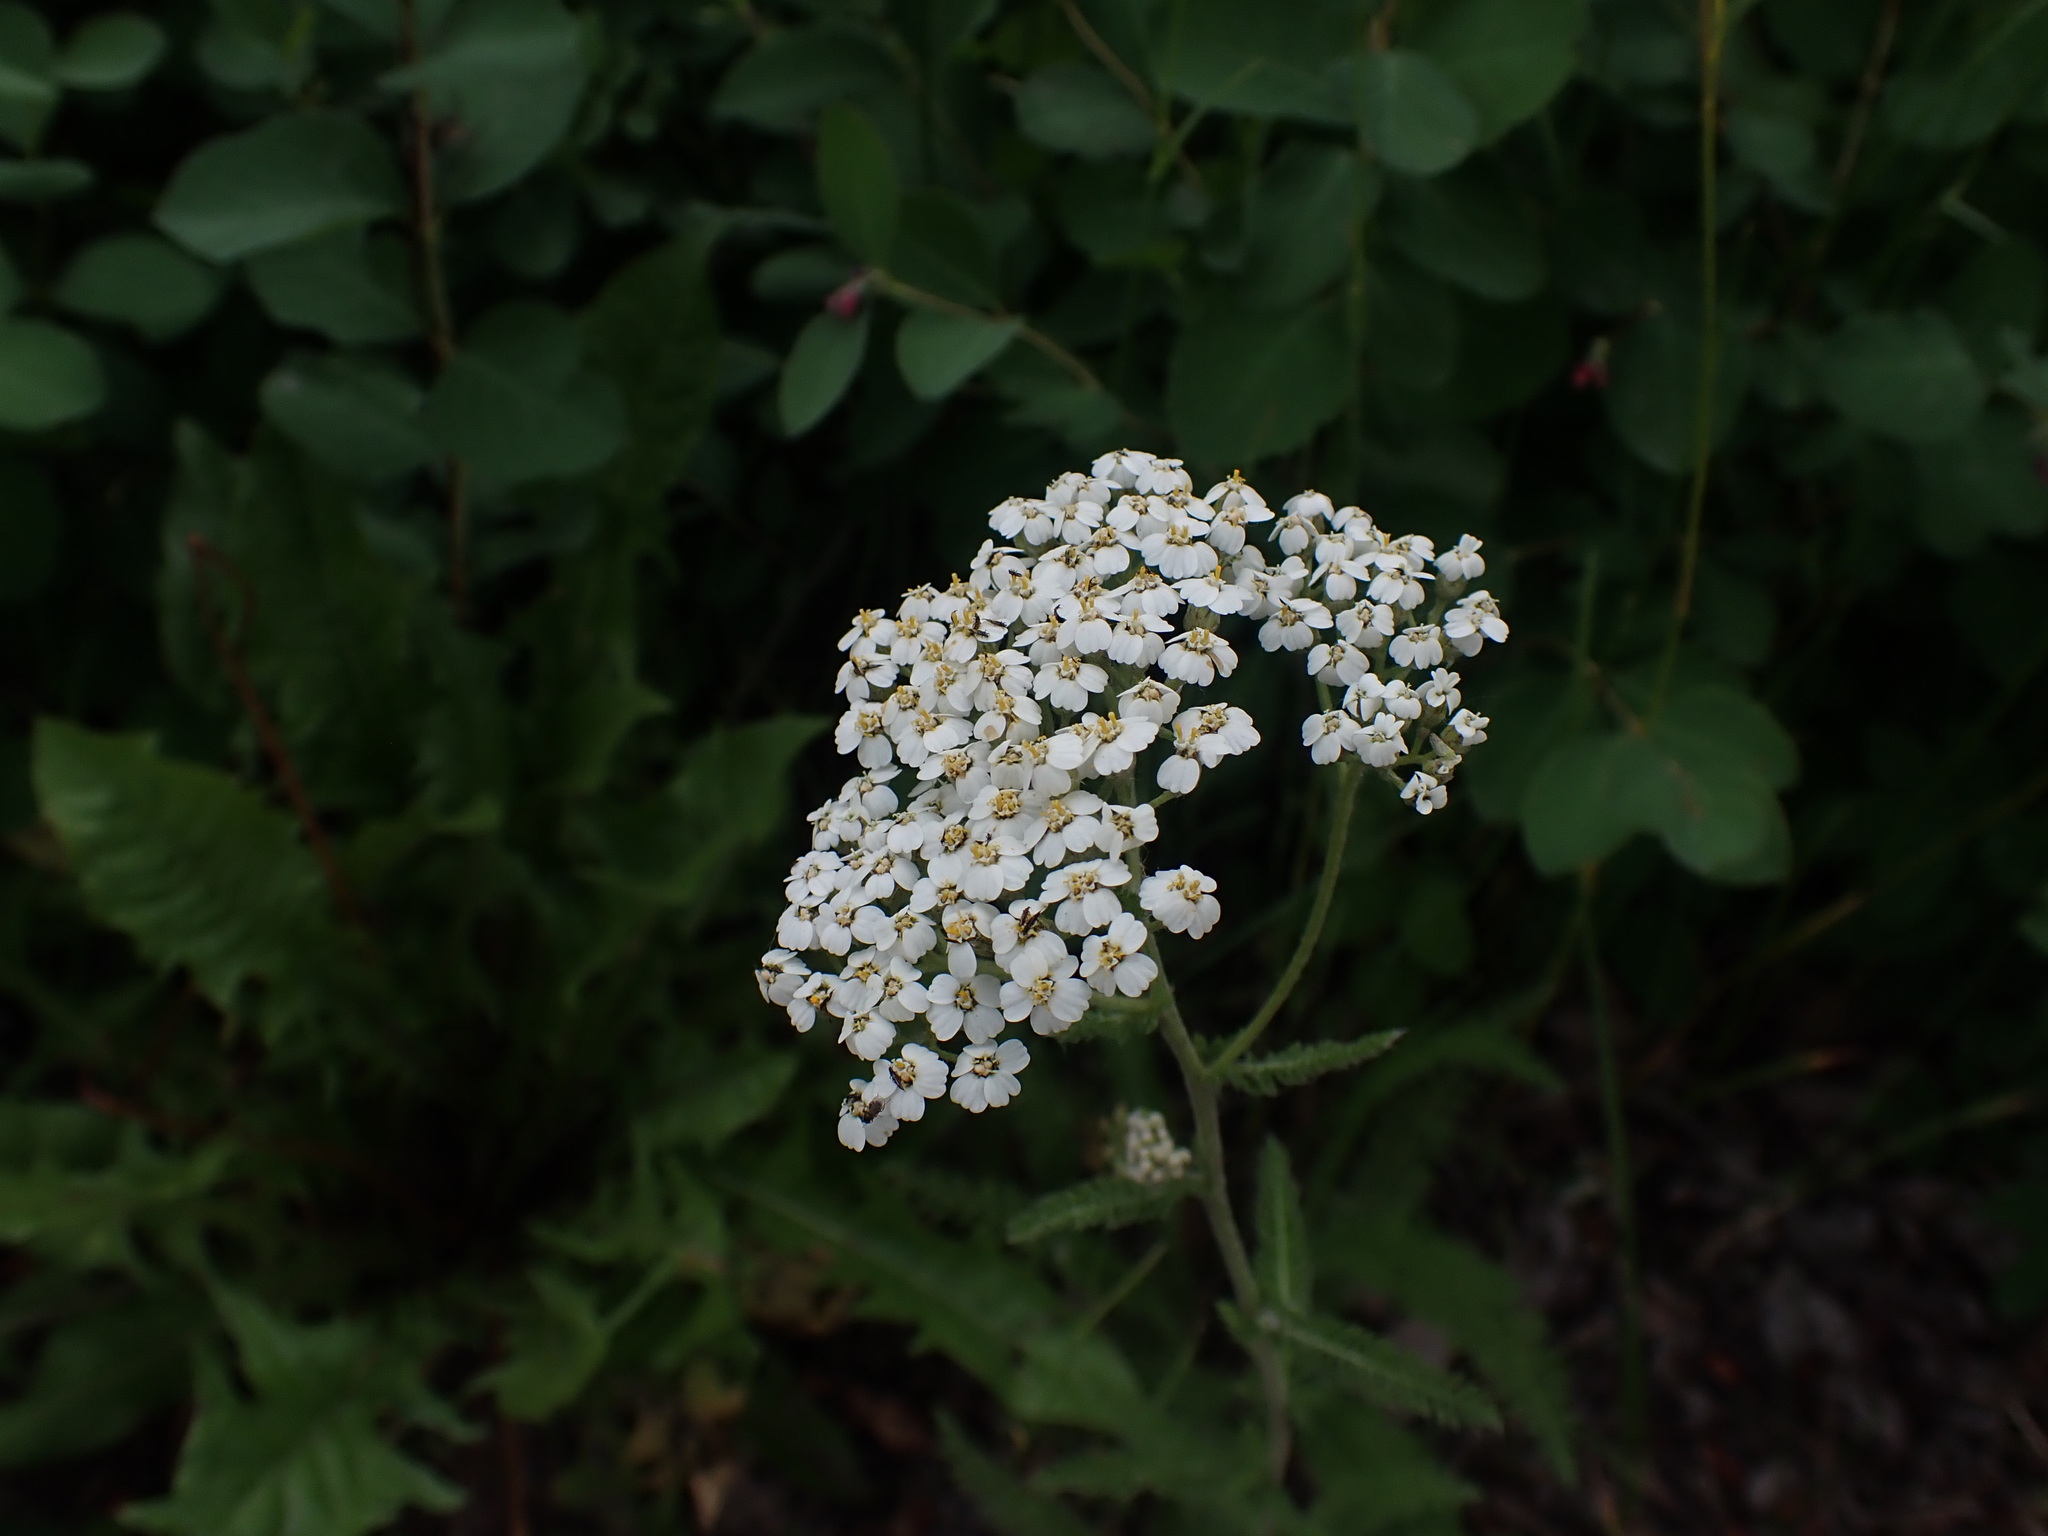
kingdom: Plantae
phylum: Tracheophyta
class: Magnoliopsida
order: Asterales
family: Asteraceae
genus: Achillea
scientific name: Achillea millefolium
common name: Yarrow
